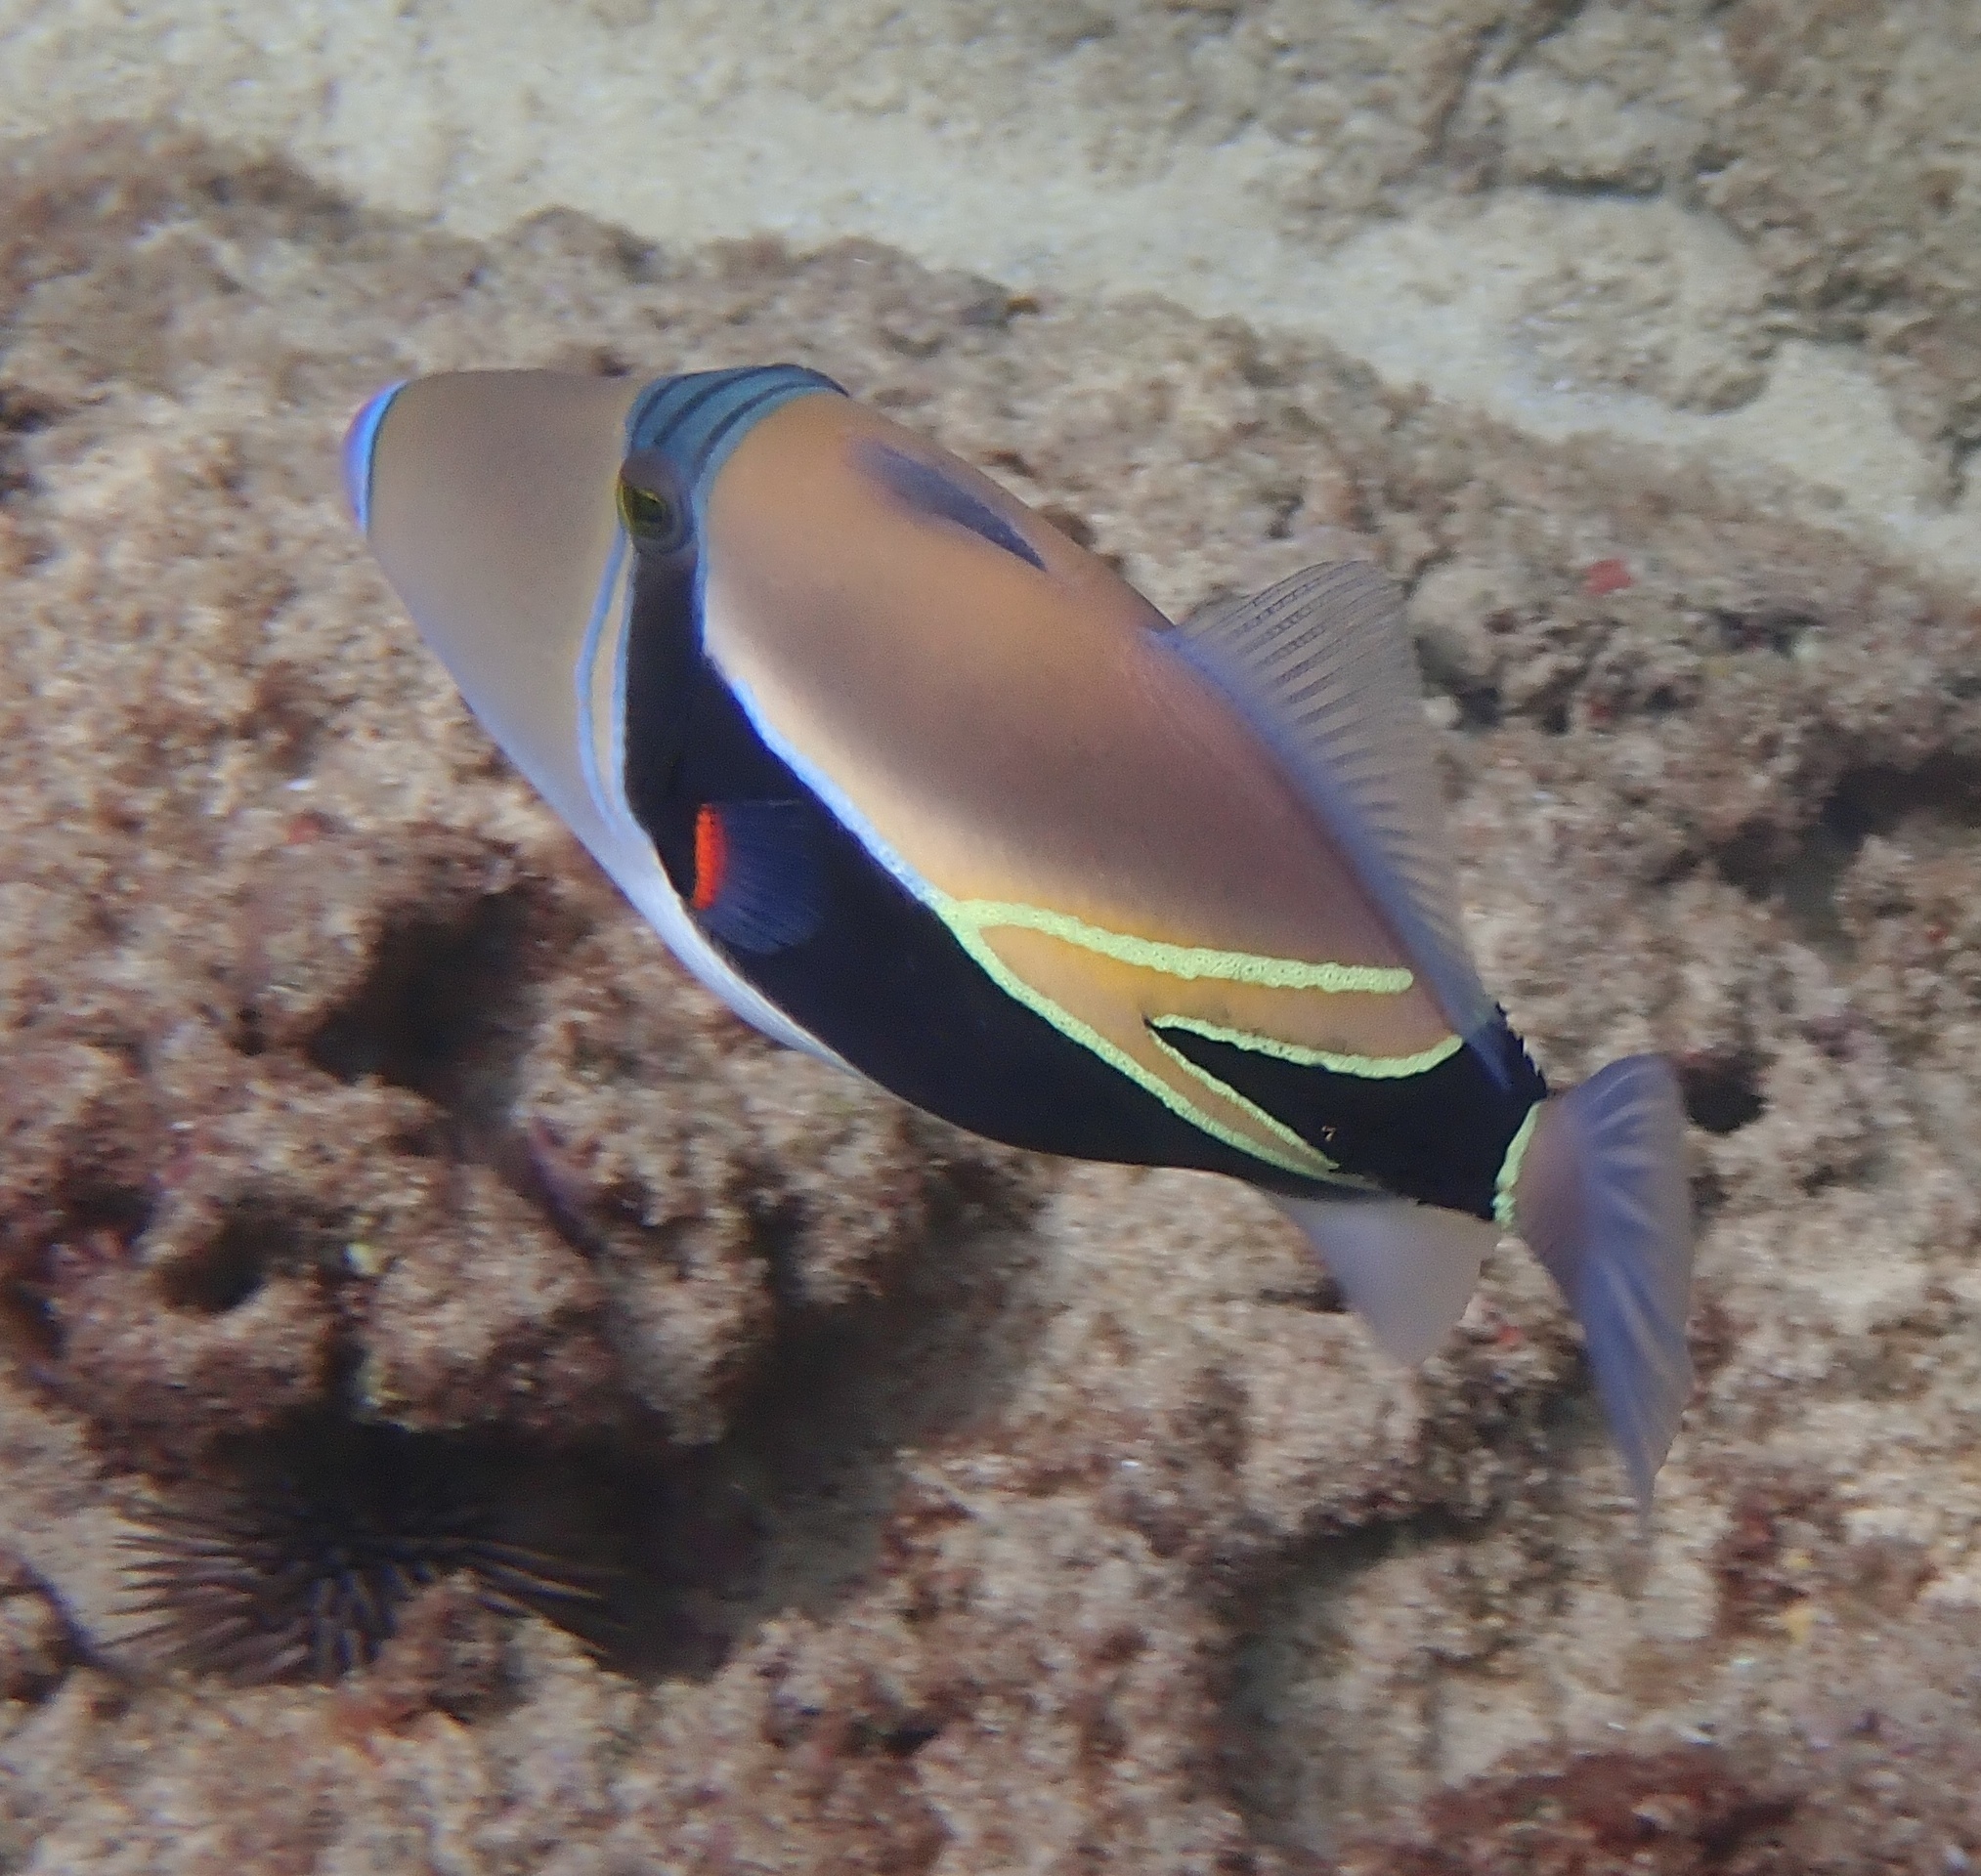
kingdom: Animalia
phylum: Chordata
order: Tetraodontiformes
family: Balistidae
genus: Rhinecanthus
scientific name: Rhinecanthus rectangulus
